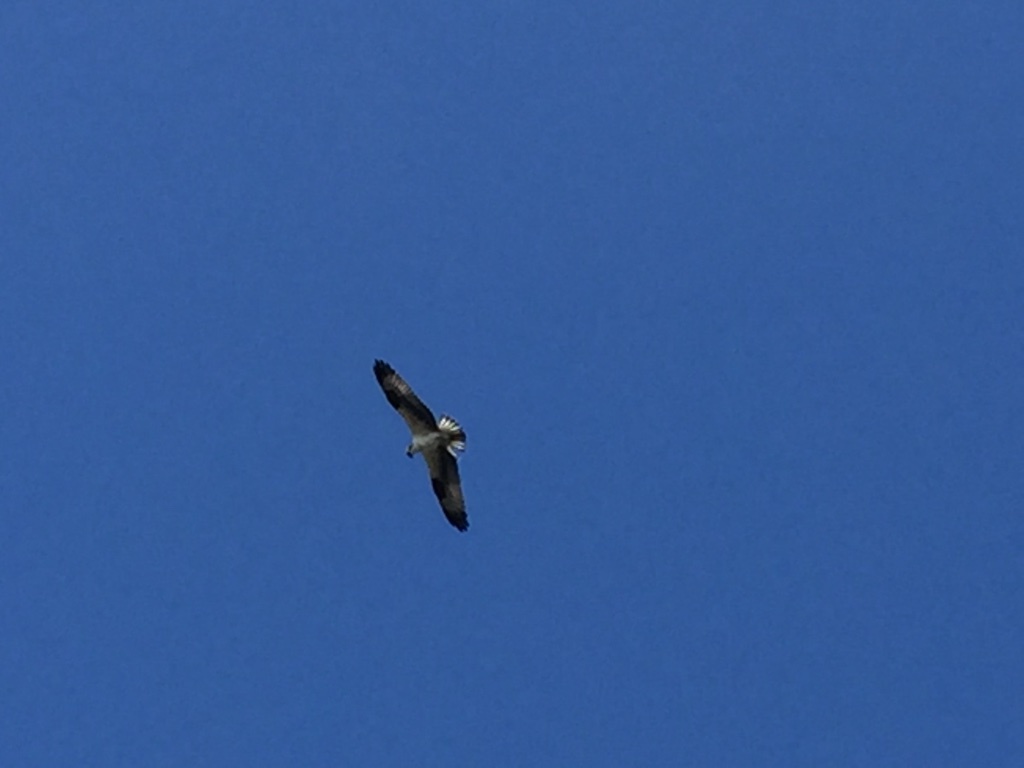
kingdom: Animalia
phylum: Chordata
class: Aves
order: Accipitriformes
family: Pandionidae
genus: Pandion
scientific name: Pandion haliaetus
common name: Osprey
